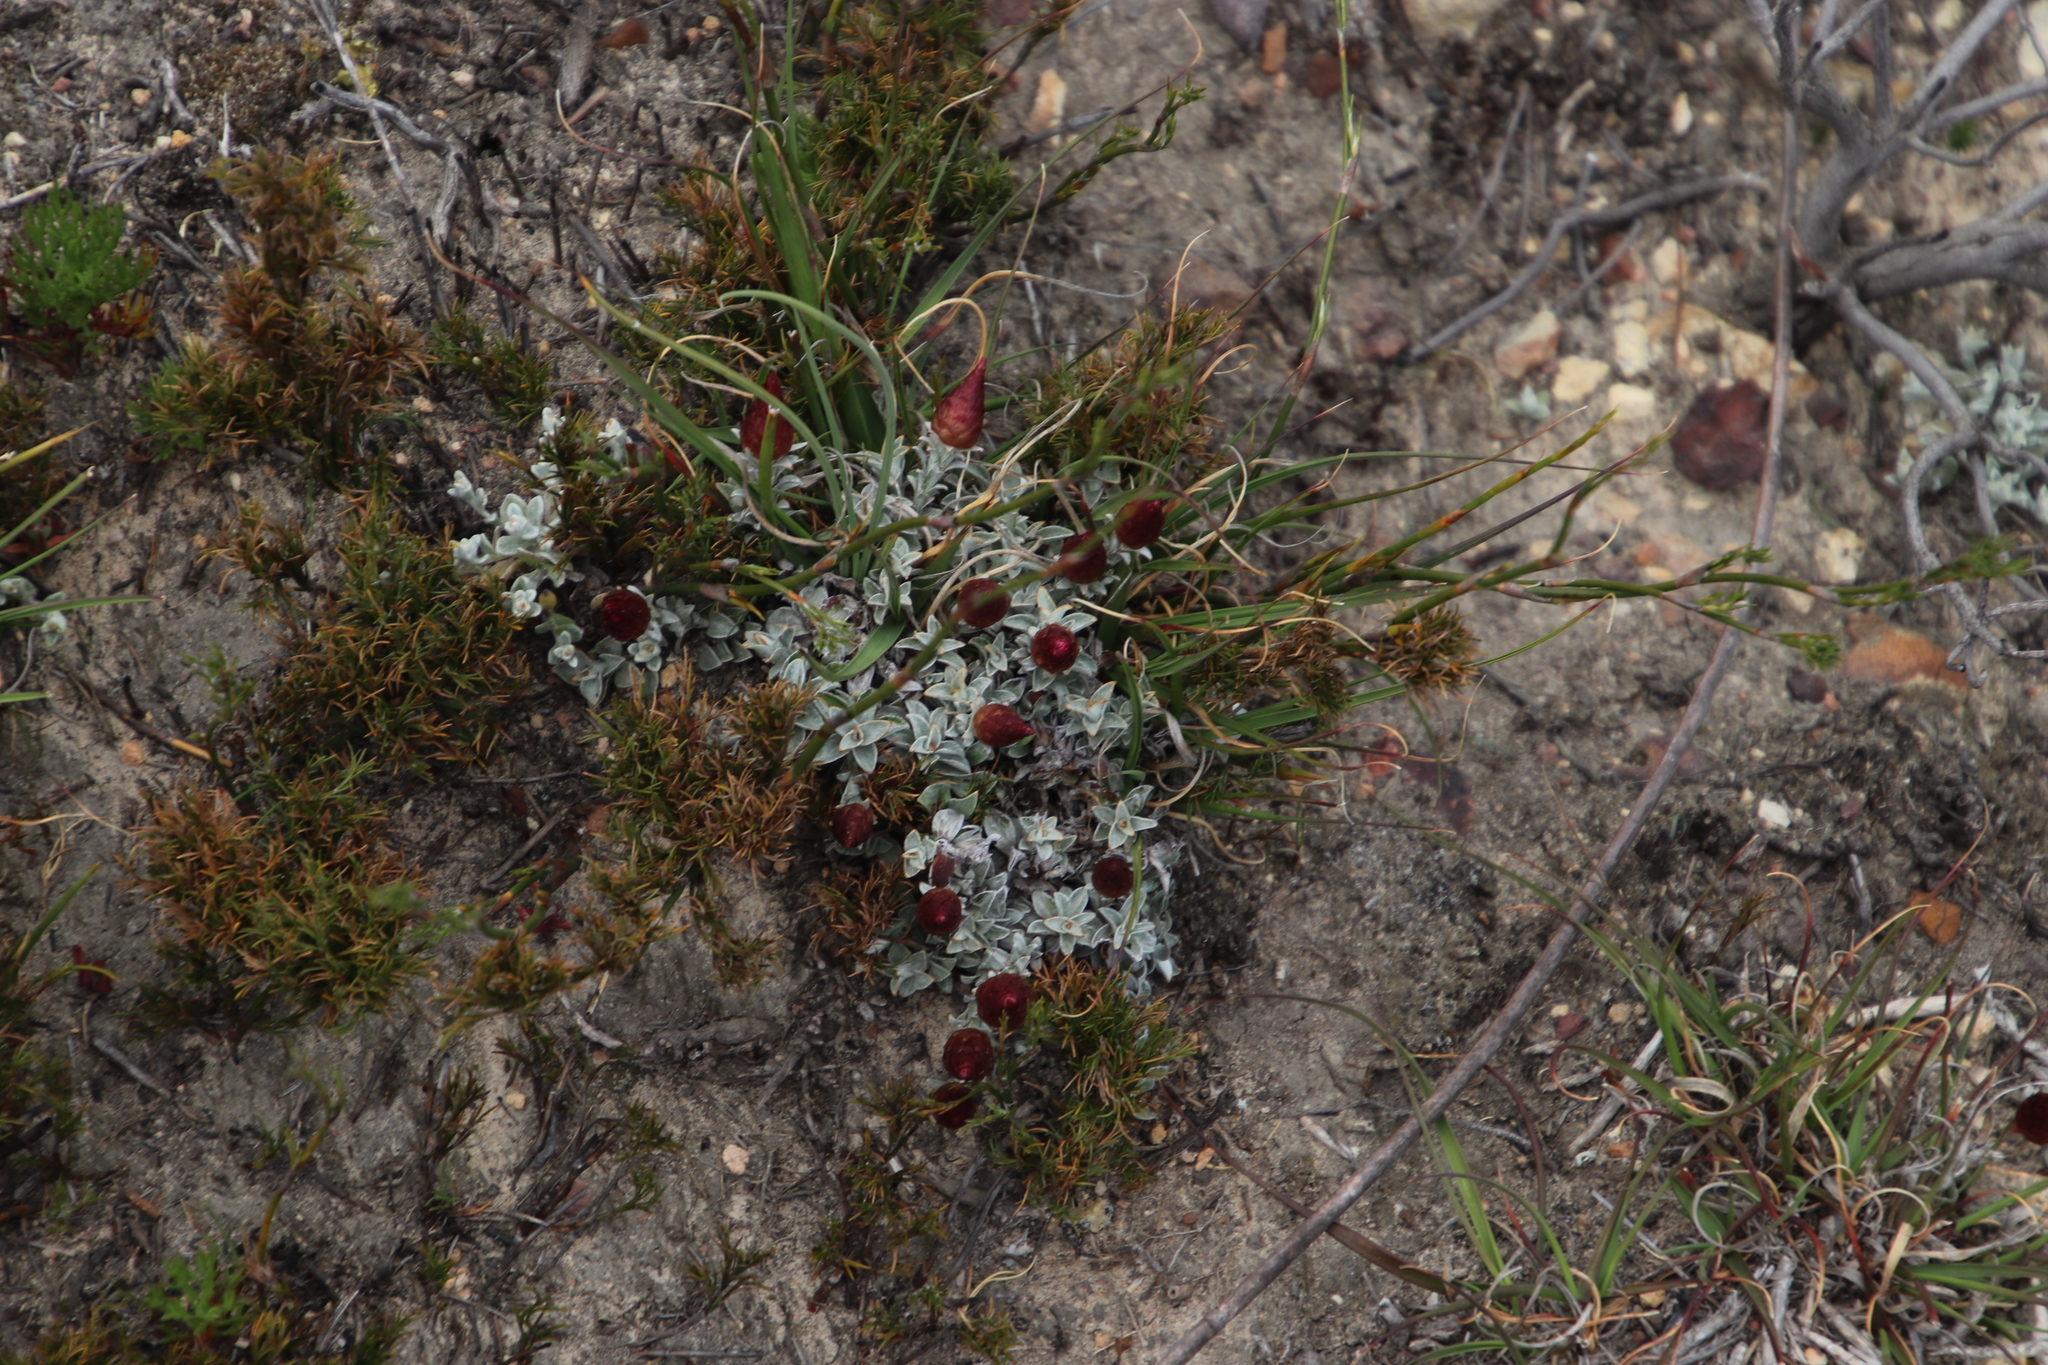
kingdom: Plantae
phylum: Tracheophyta
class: Magnoliopsida
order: Asterales
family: Asteraceae
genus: Syncarpha
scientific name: Syncarpha canescens
